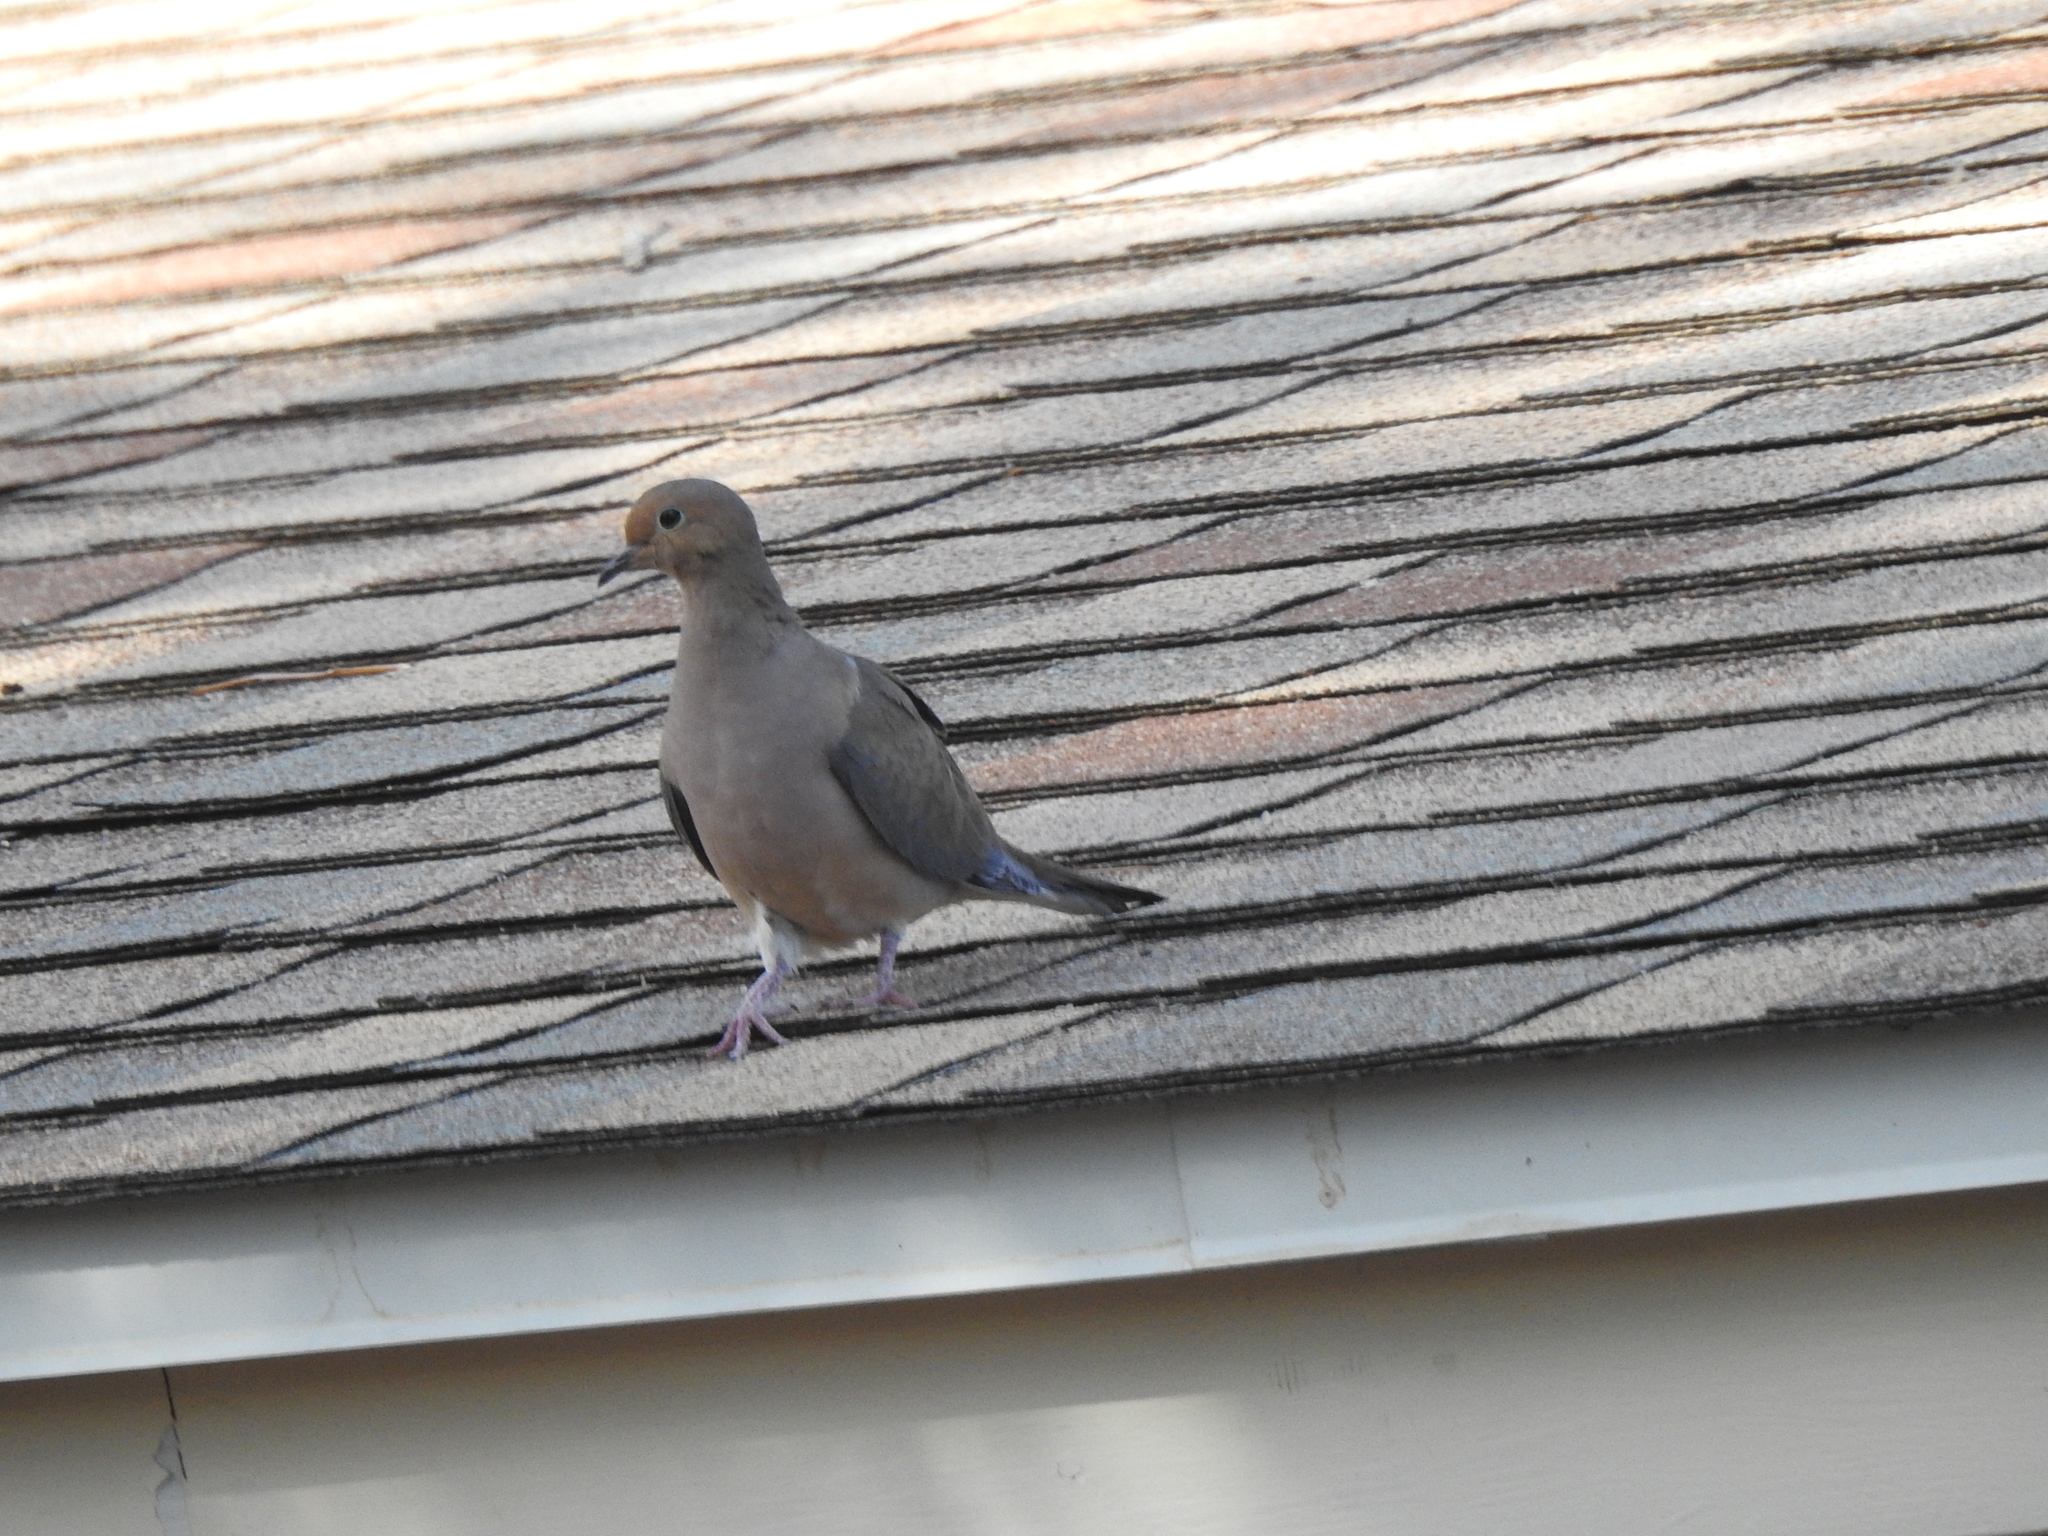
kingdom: Animalia
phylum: Chordata
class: Aves
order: Columbiformes
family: Columbidae
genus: Zenaida
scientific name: Zenaida macroura
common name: Mourning dove
